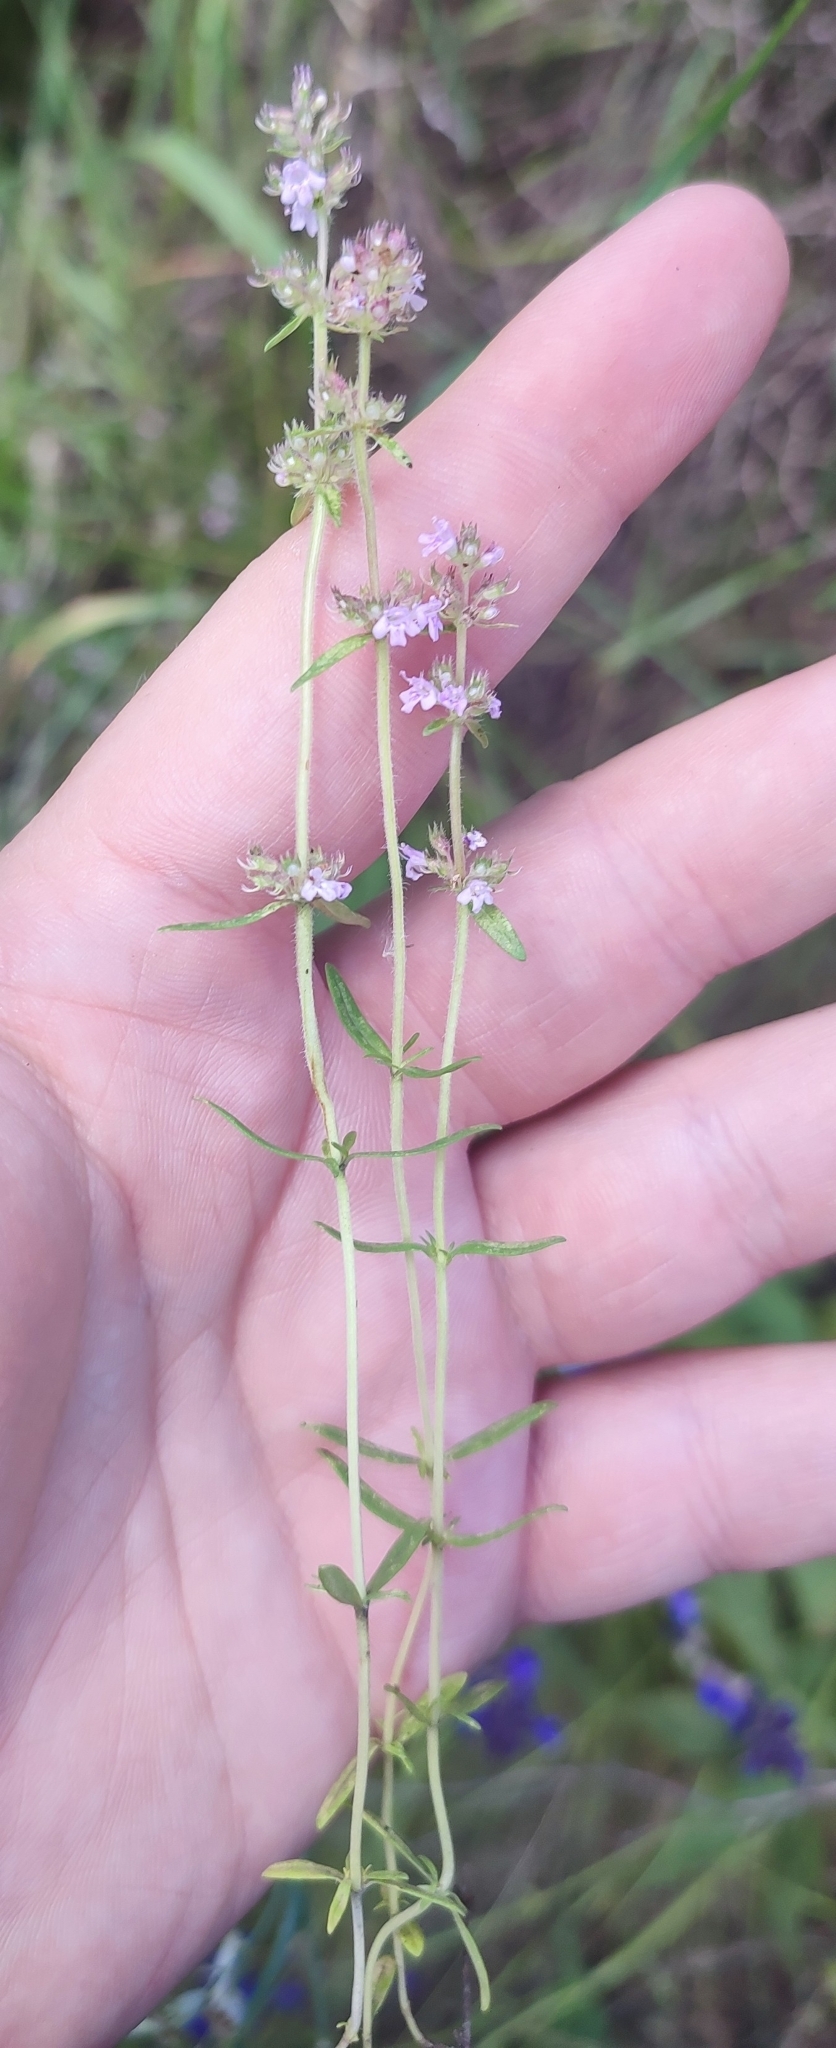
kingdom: Plantae
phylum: Tracheophyta
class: Magnoliopsida
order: Lamiales
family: Lamiaceae
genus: Thymus
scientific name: Thymus pannonicus
